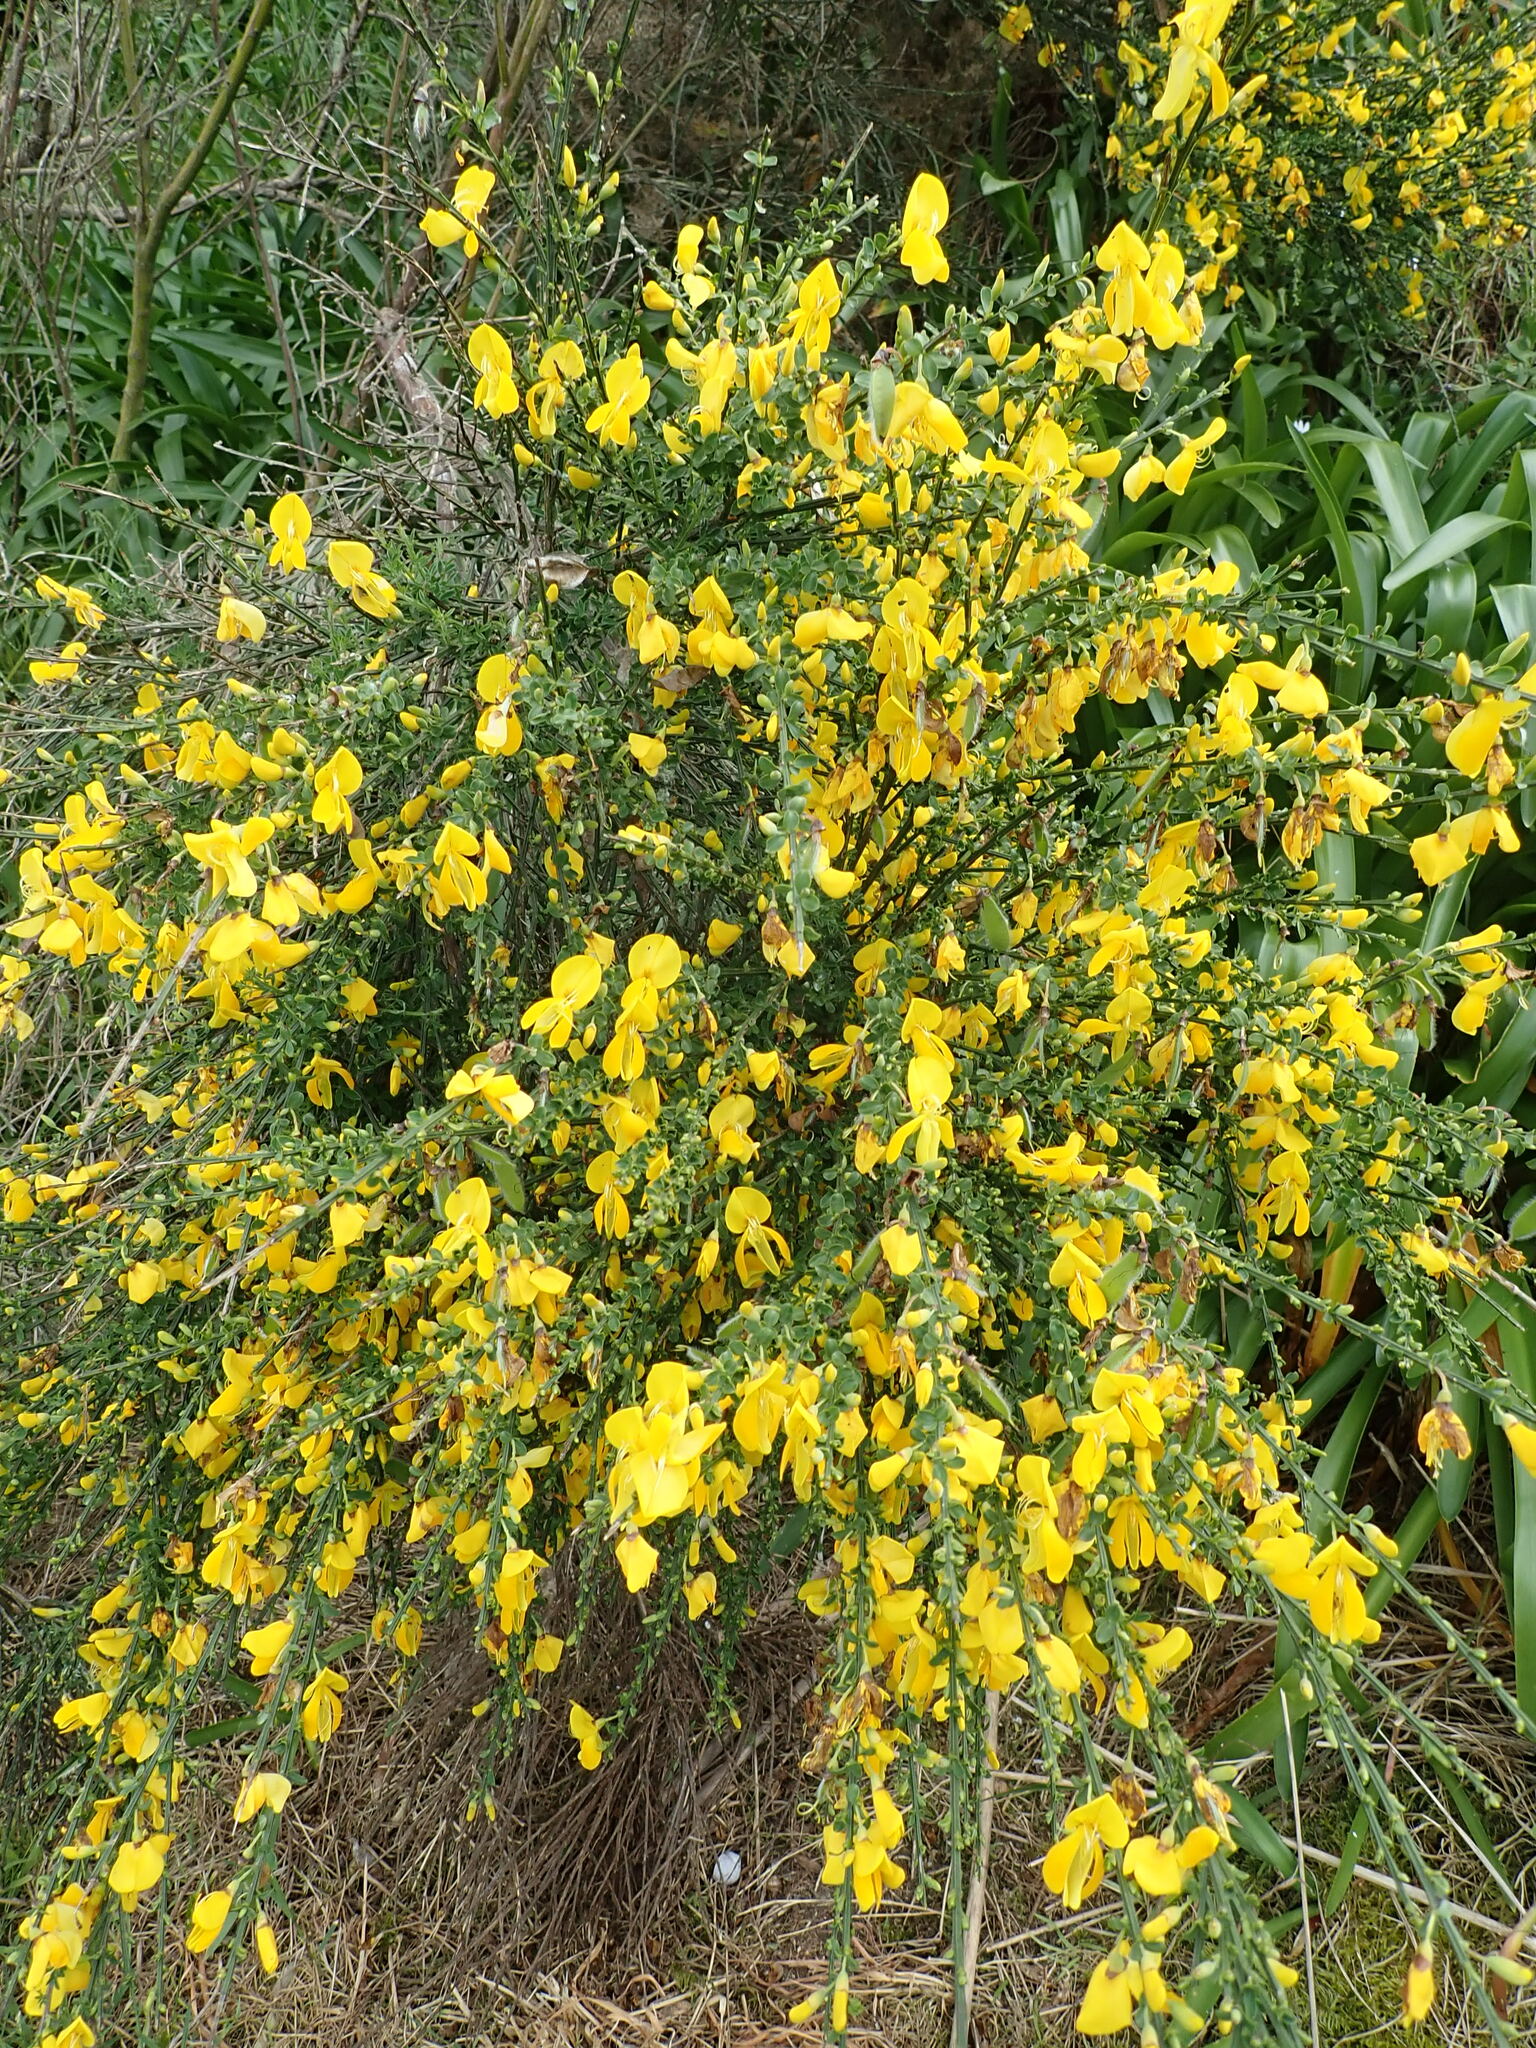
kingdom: Plantae
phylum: Tracheophyta
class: Magnoliopsida
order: Fabales
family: Fabaceae
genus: Genista
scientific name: Genista monspessulana
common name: Montpellier broom
